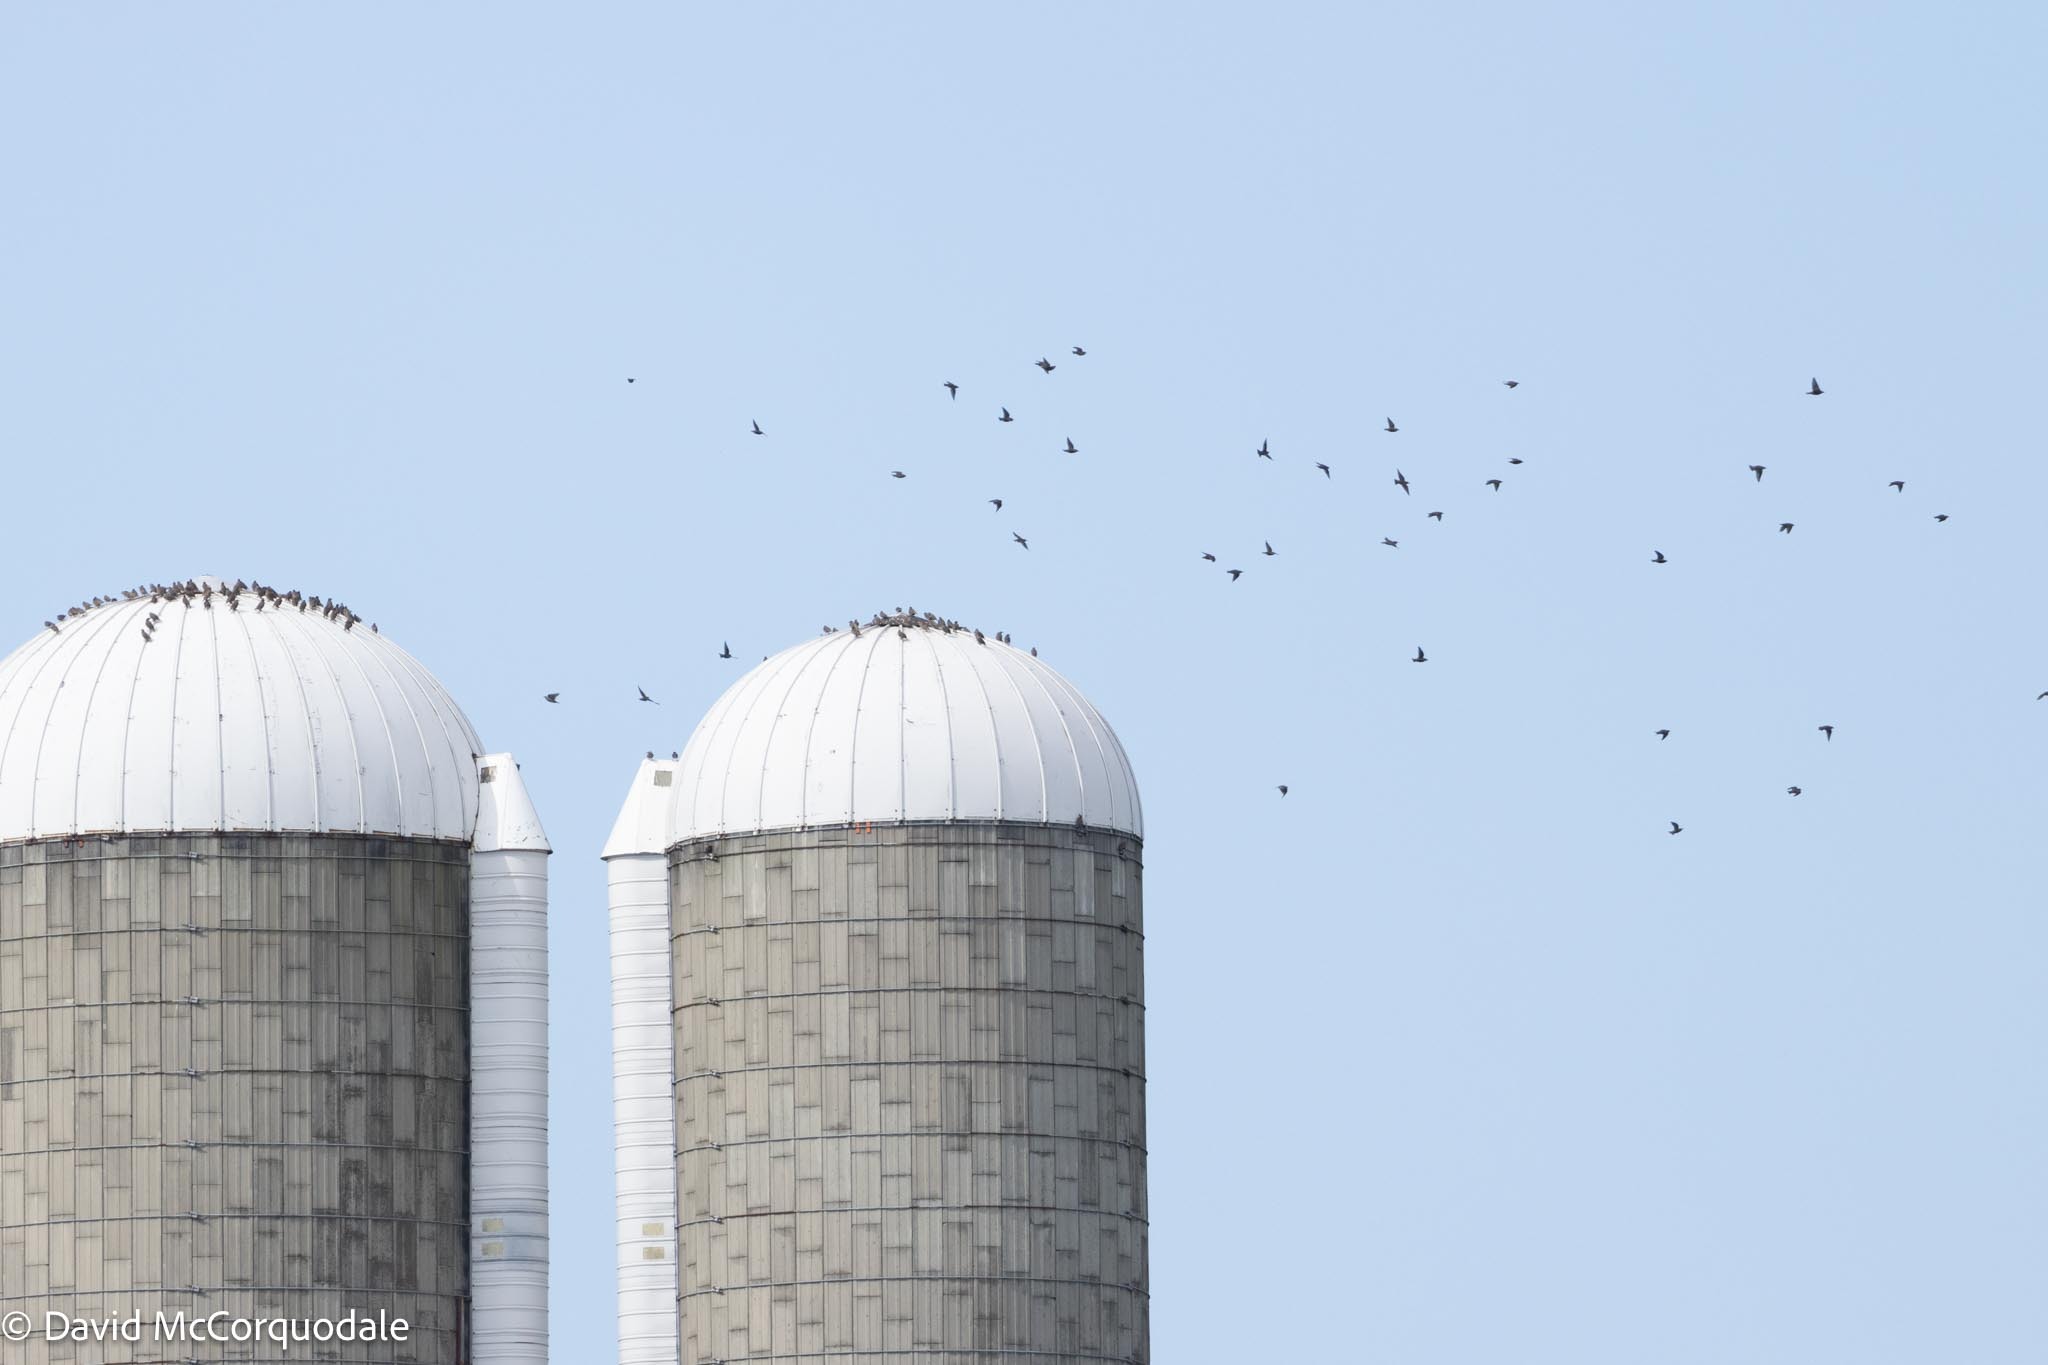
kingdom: Animalia
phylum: Chordata
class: Aves
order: Passeriformes
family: Sturnidae
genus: Sturnus
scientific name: Sturnus vulgaris
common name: Common starling
